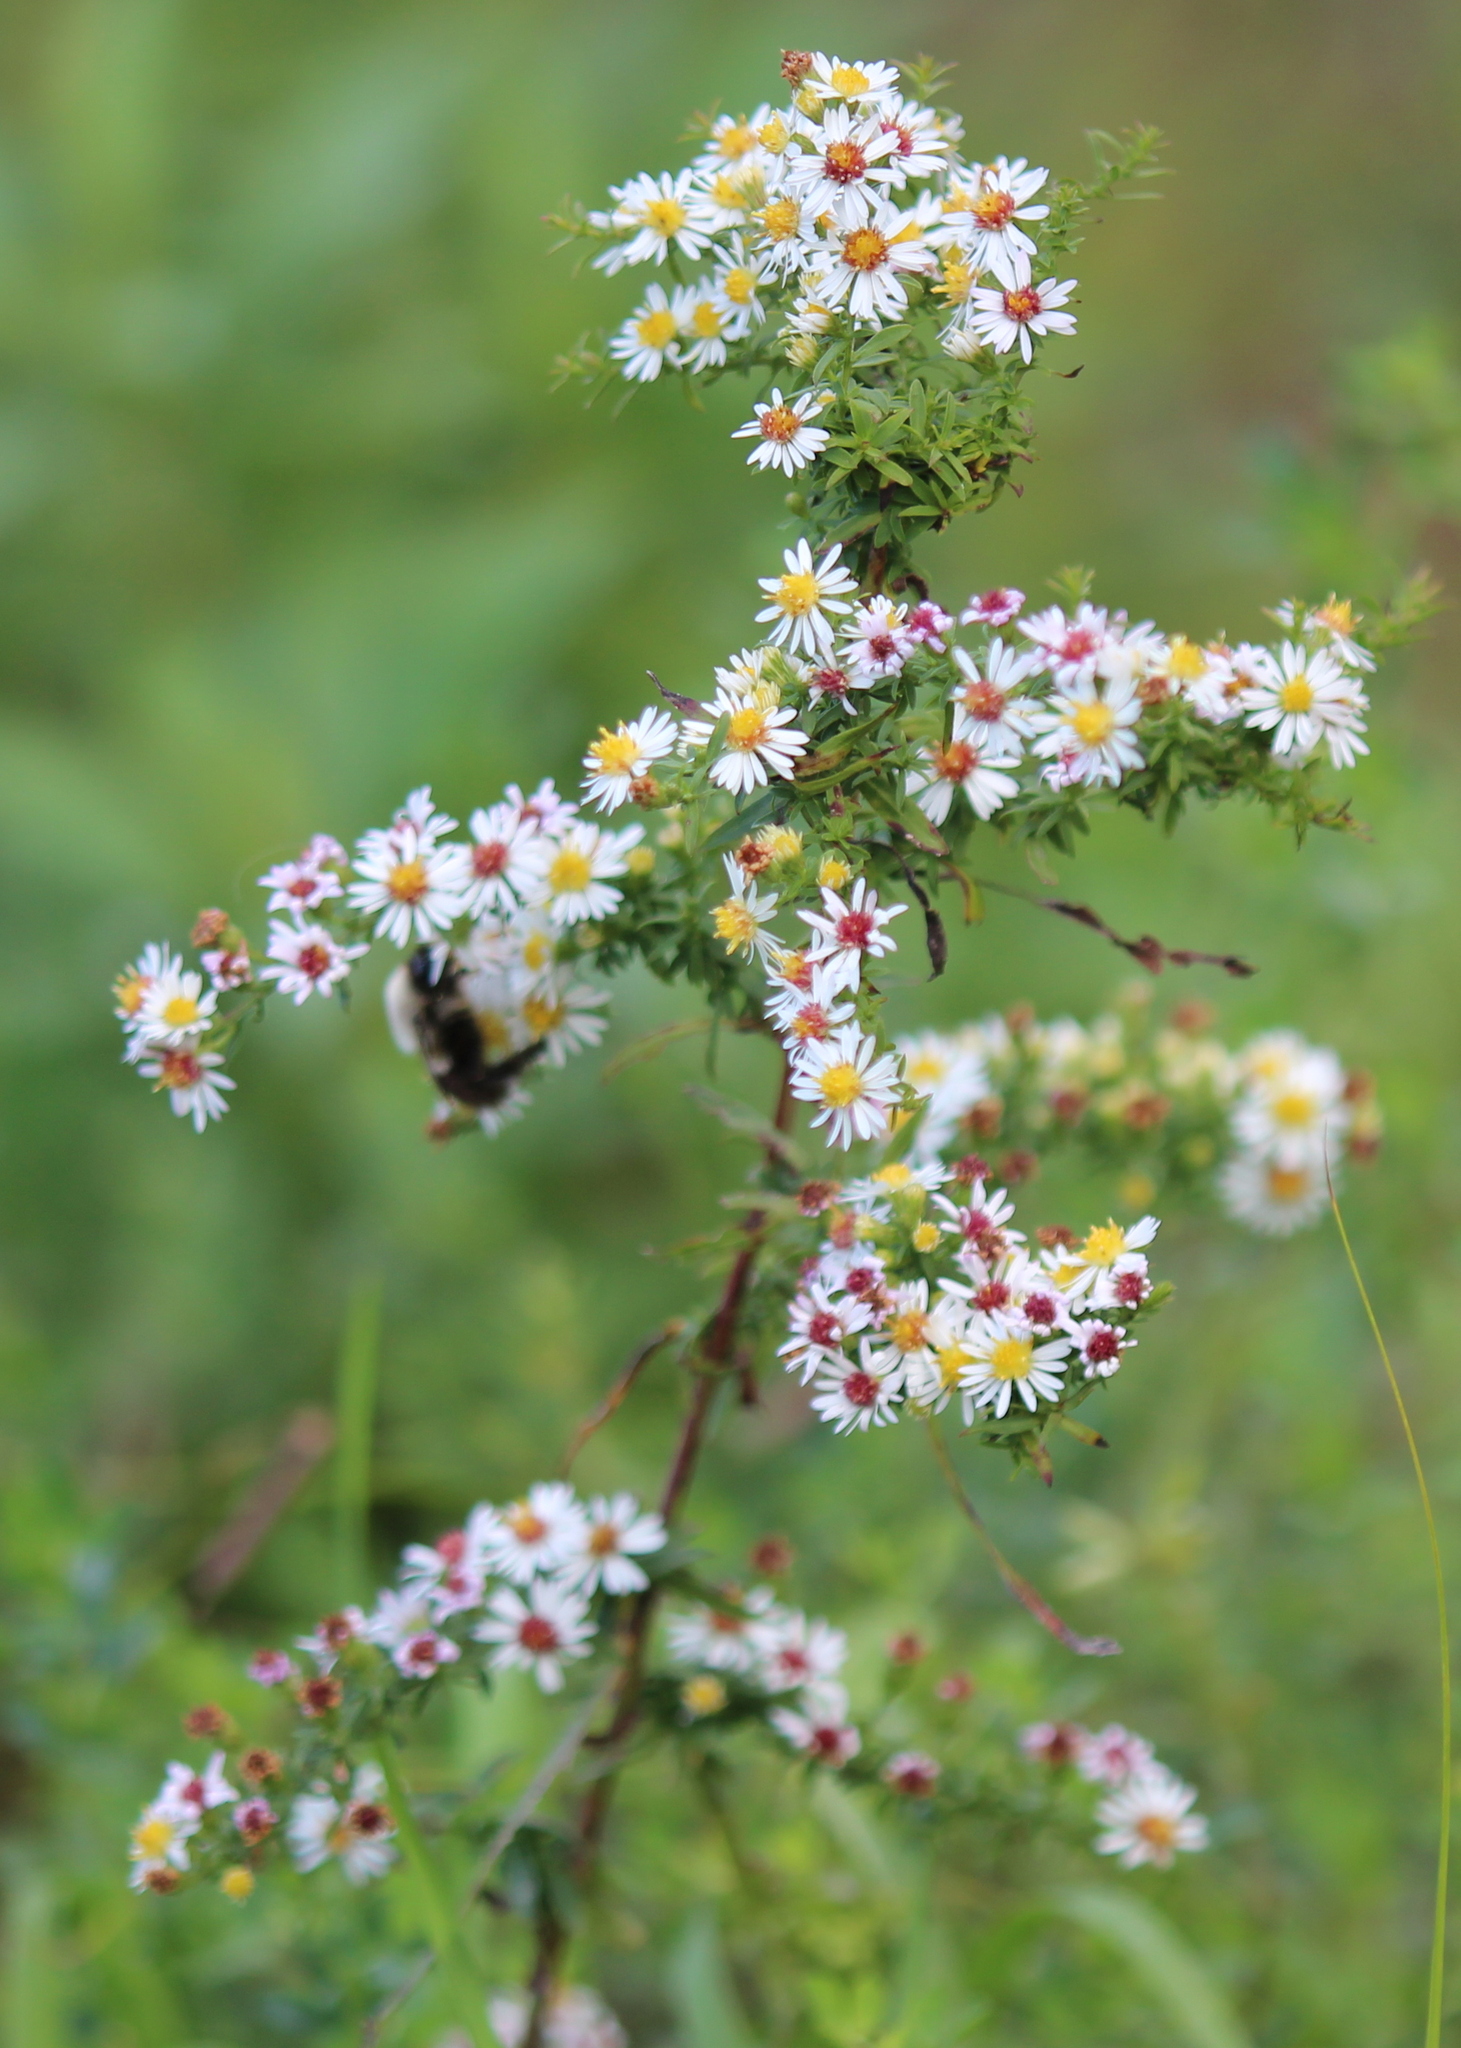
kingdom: Plantae
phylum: Tracheophyta
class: Magnoliopsida
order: Asterales
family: Asteraceae
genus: Symphyotrichum
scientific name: Symphyotrichum racemosum
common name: Small white aster
